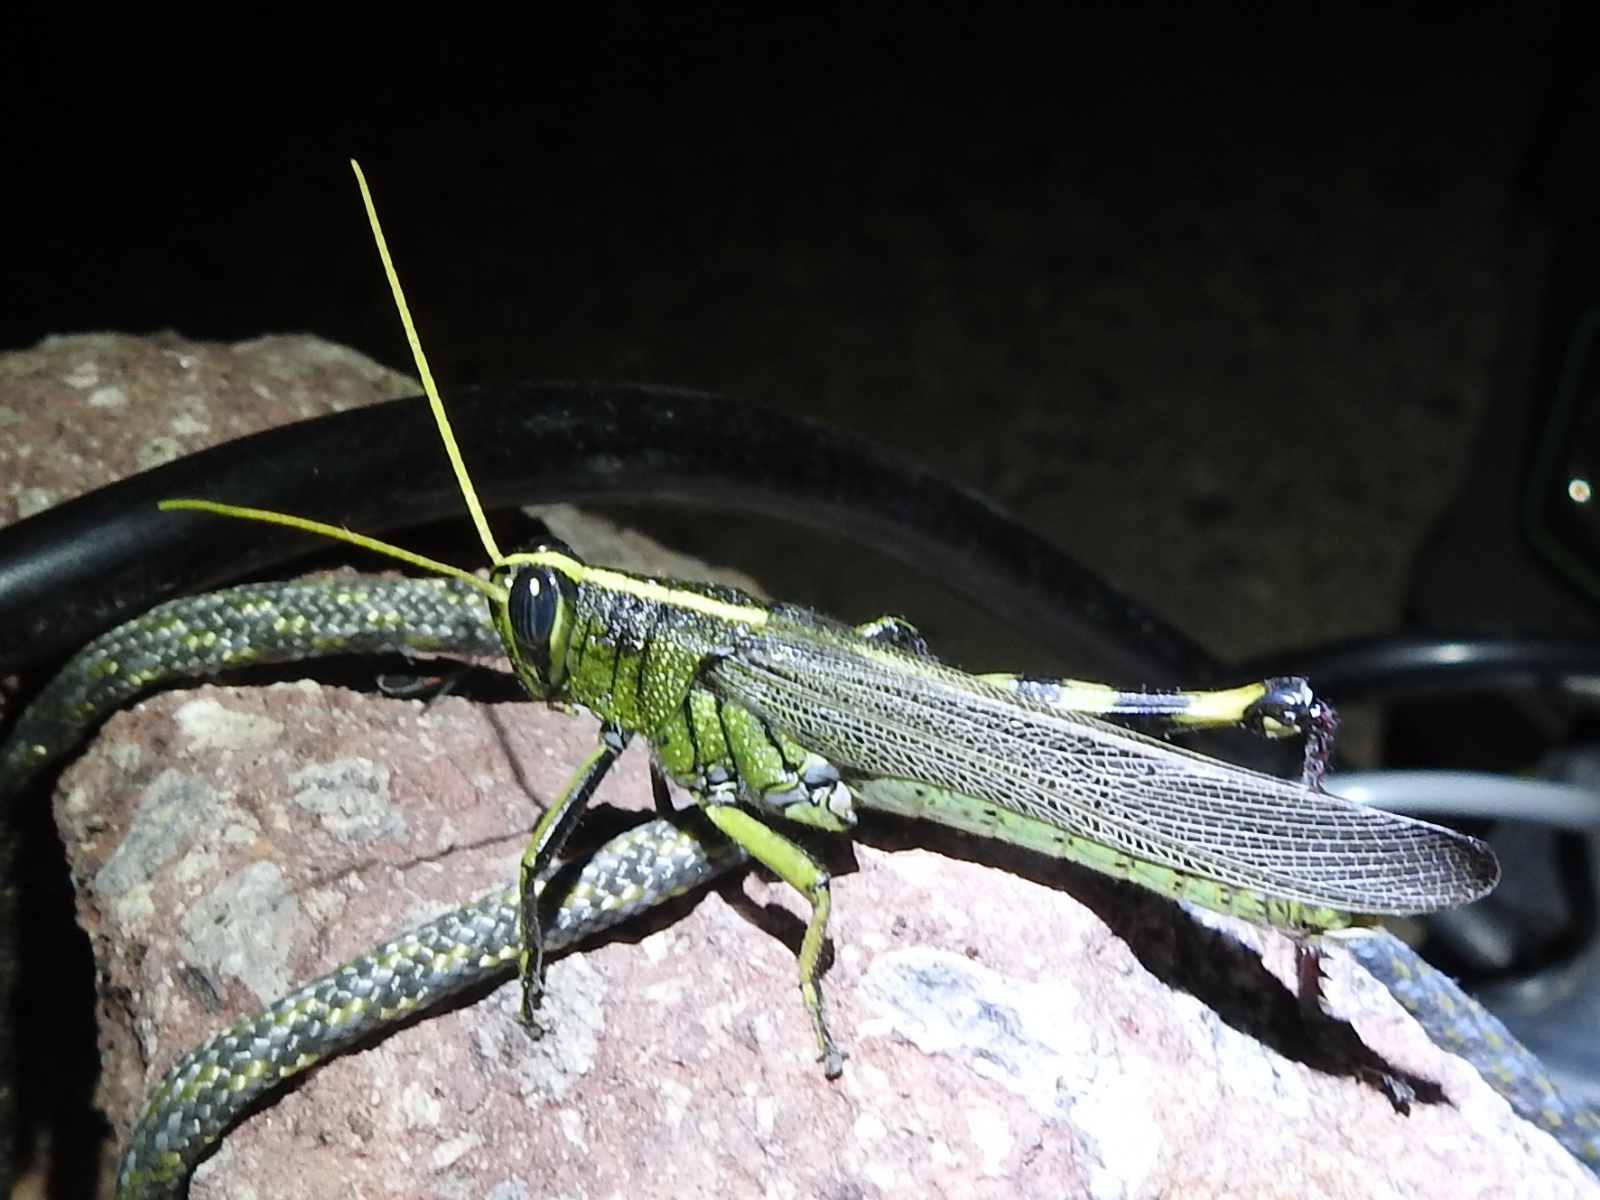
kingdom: Animalia
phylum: Arthropoda
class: Insecta
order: Orthoptera
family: Acrididae
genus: Schistocerca
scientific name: Schistocerca albolineata
